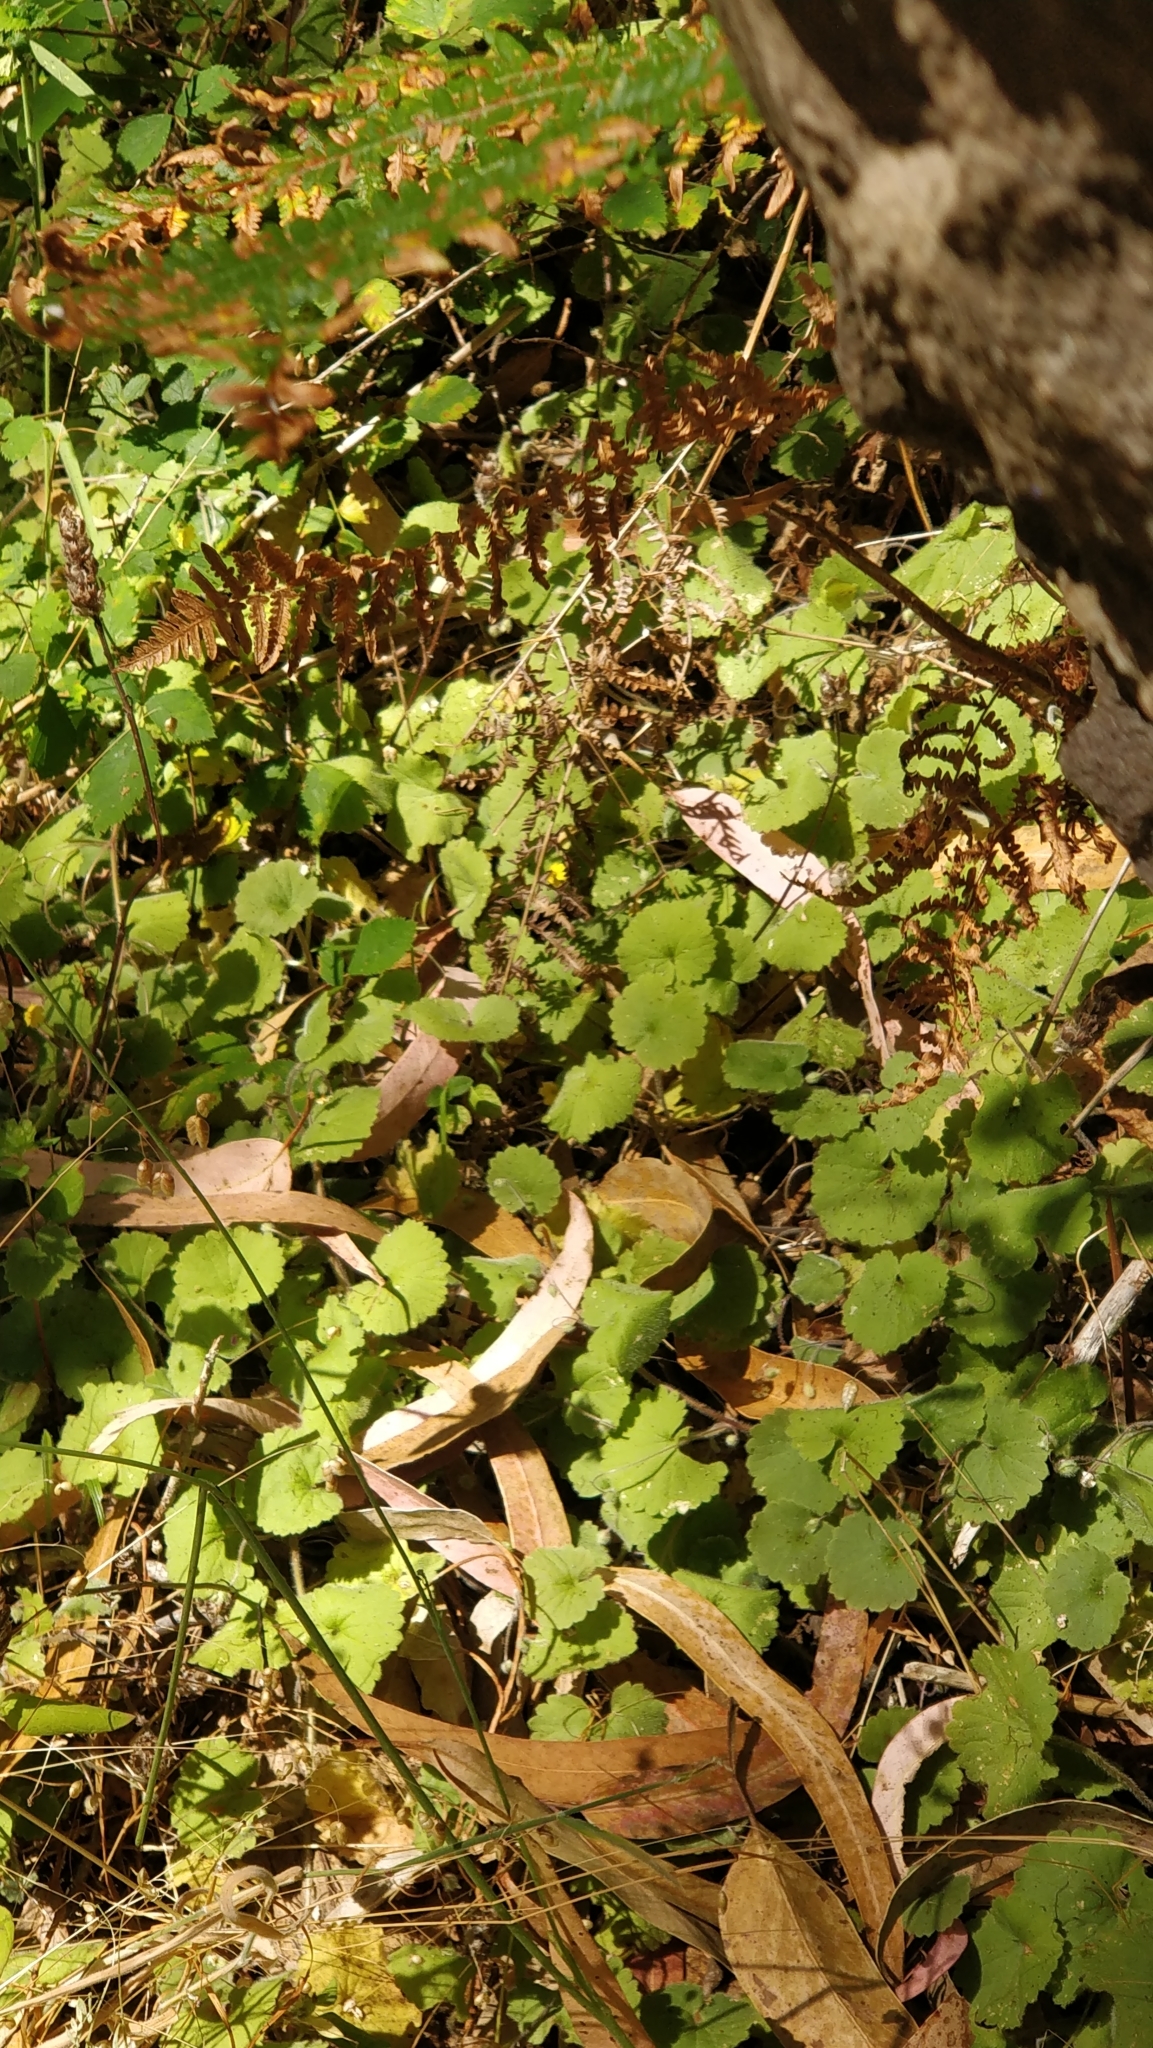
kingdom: Plantae
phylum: Tracheophyta
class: Magnoliopsida
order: Lamiales
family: Plantaginaceae
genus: Sibthorpia
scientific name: Sibthorpia peregrina
